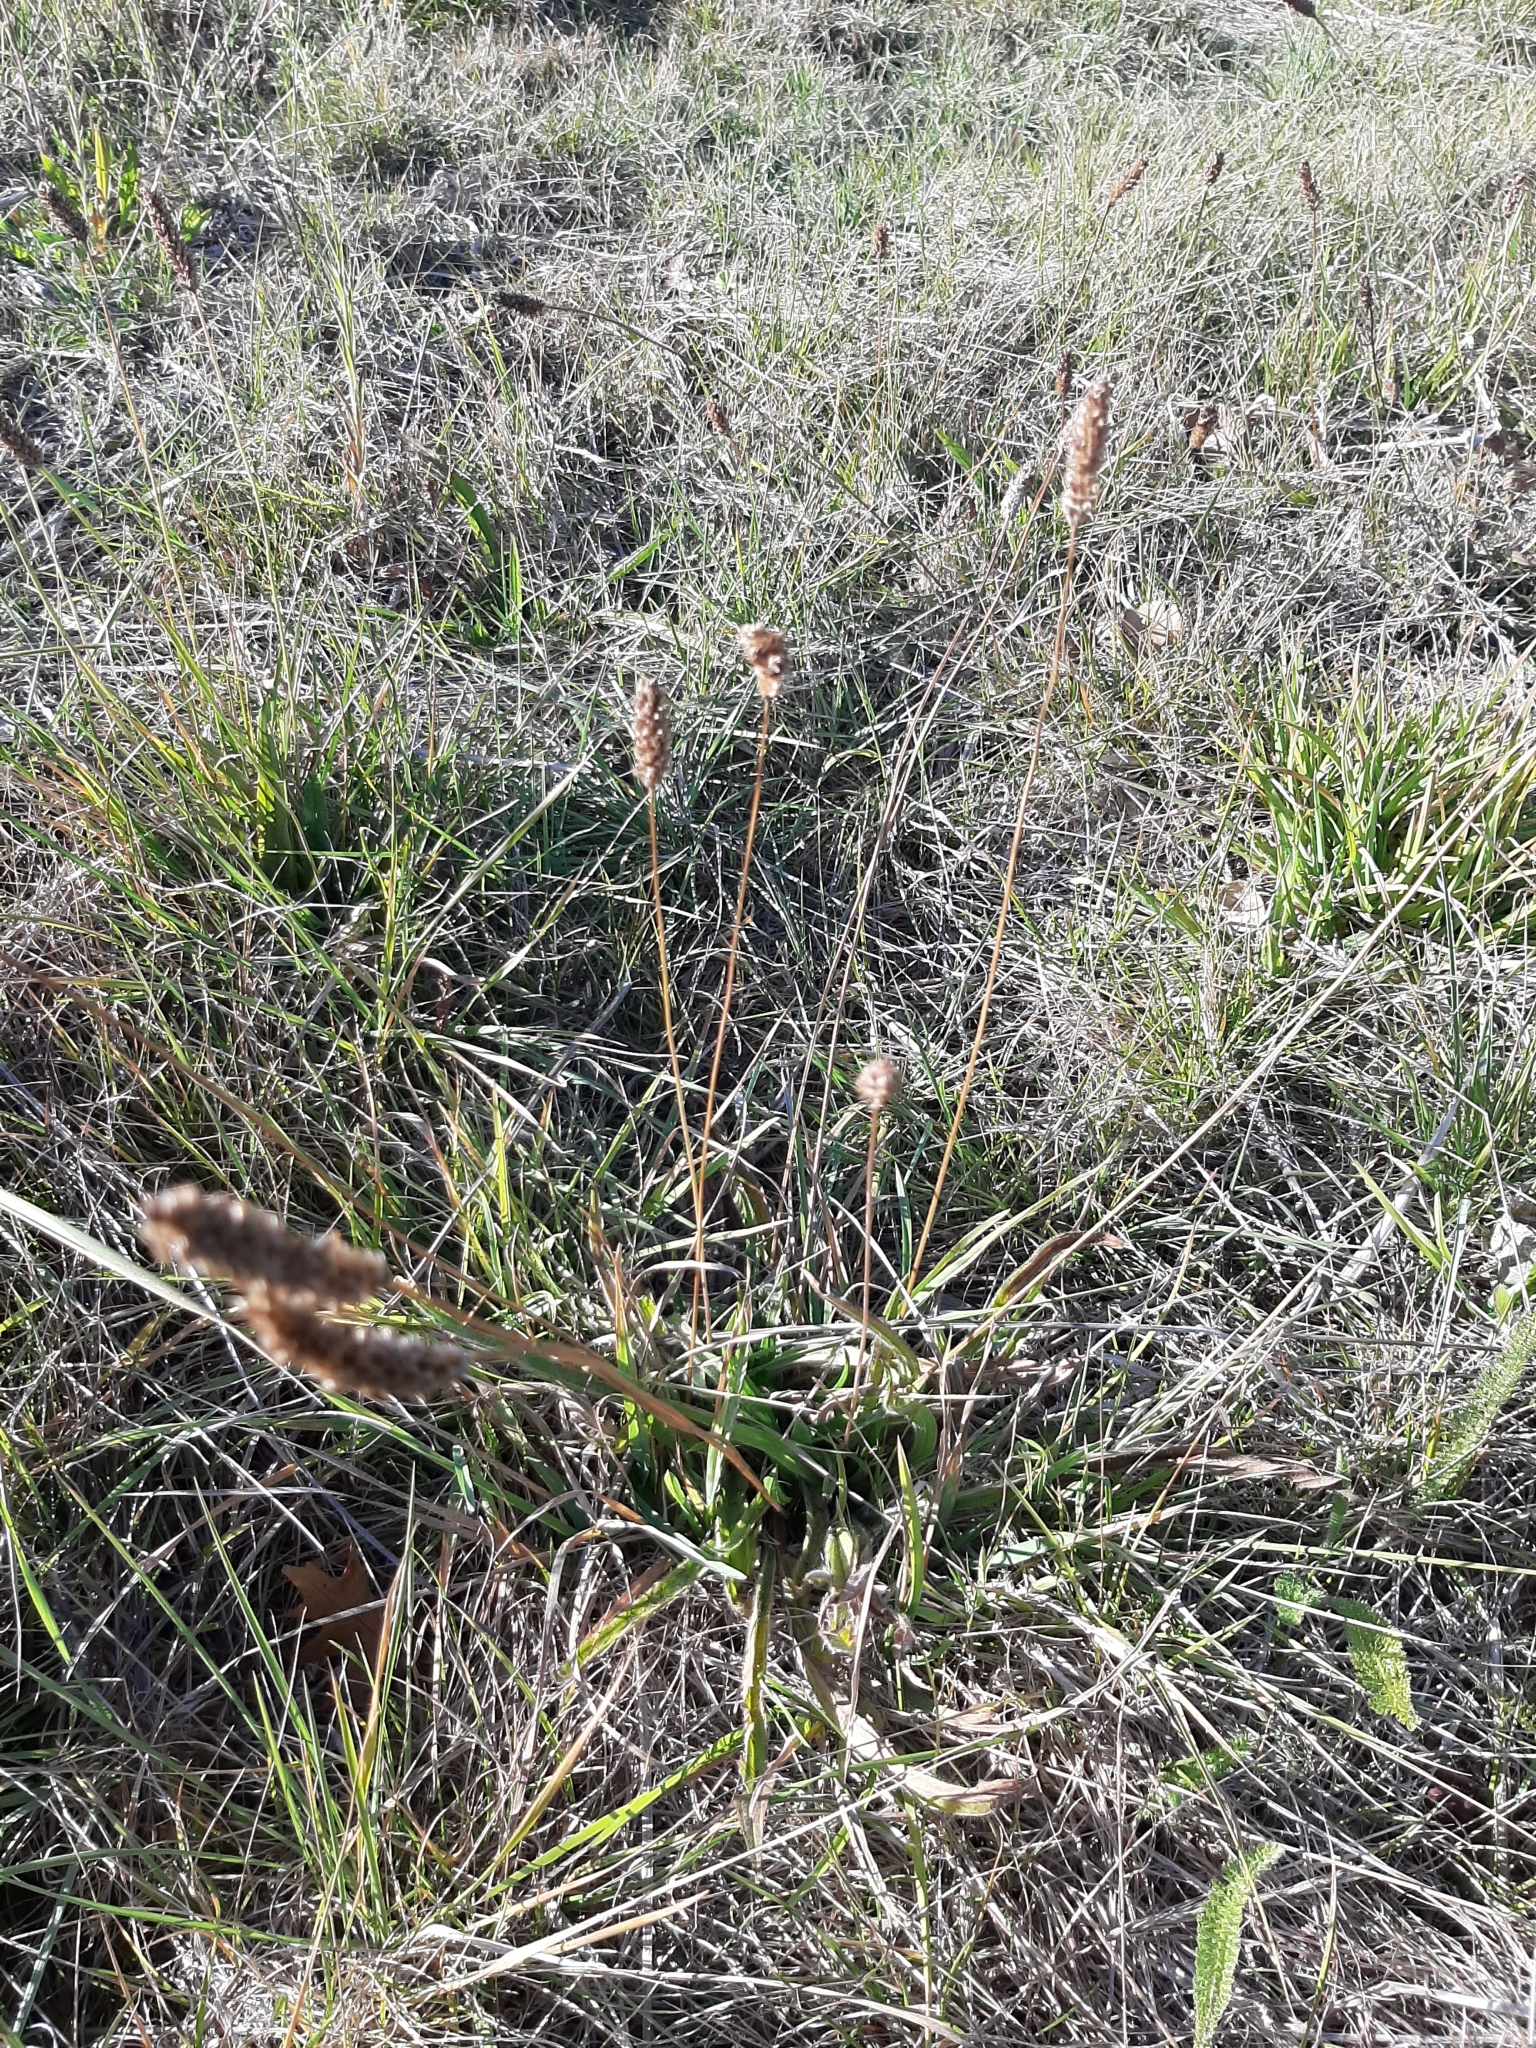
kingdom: Plantae
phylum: Tracheophyta
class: Magnoliopsida
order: Lamiales
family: Plantaginaceae
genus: Plantago
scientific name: Plantago lanceolata
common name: Ribwort plantain
